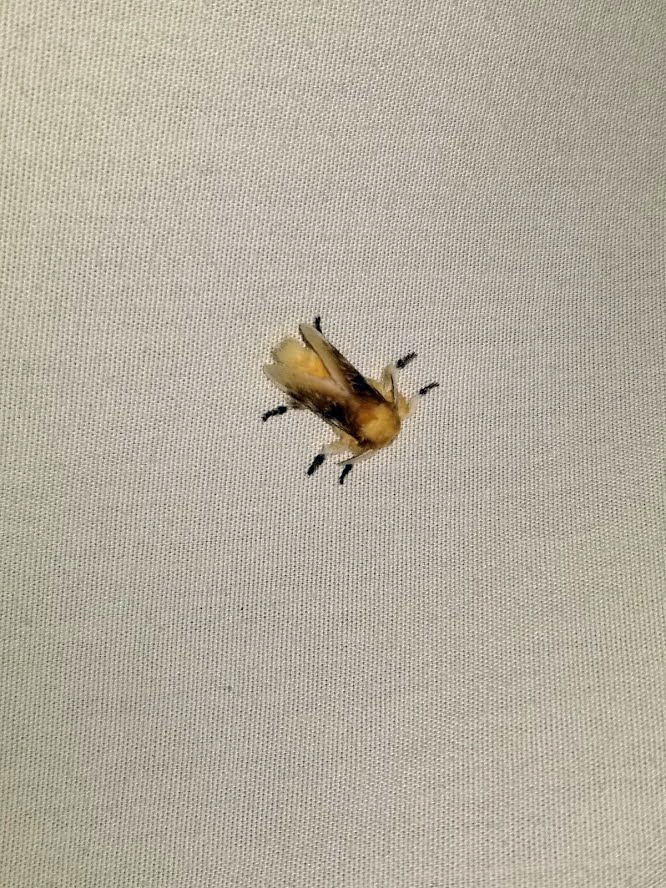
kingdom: Animalia
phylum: Arthropoda
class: Insecta
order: Lepidoptera
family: Megalopygidae
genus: Megalopyge
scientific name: Megalopyge opercularis
